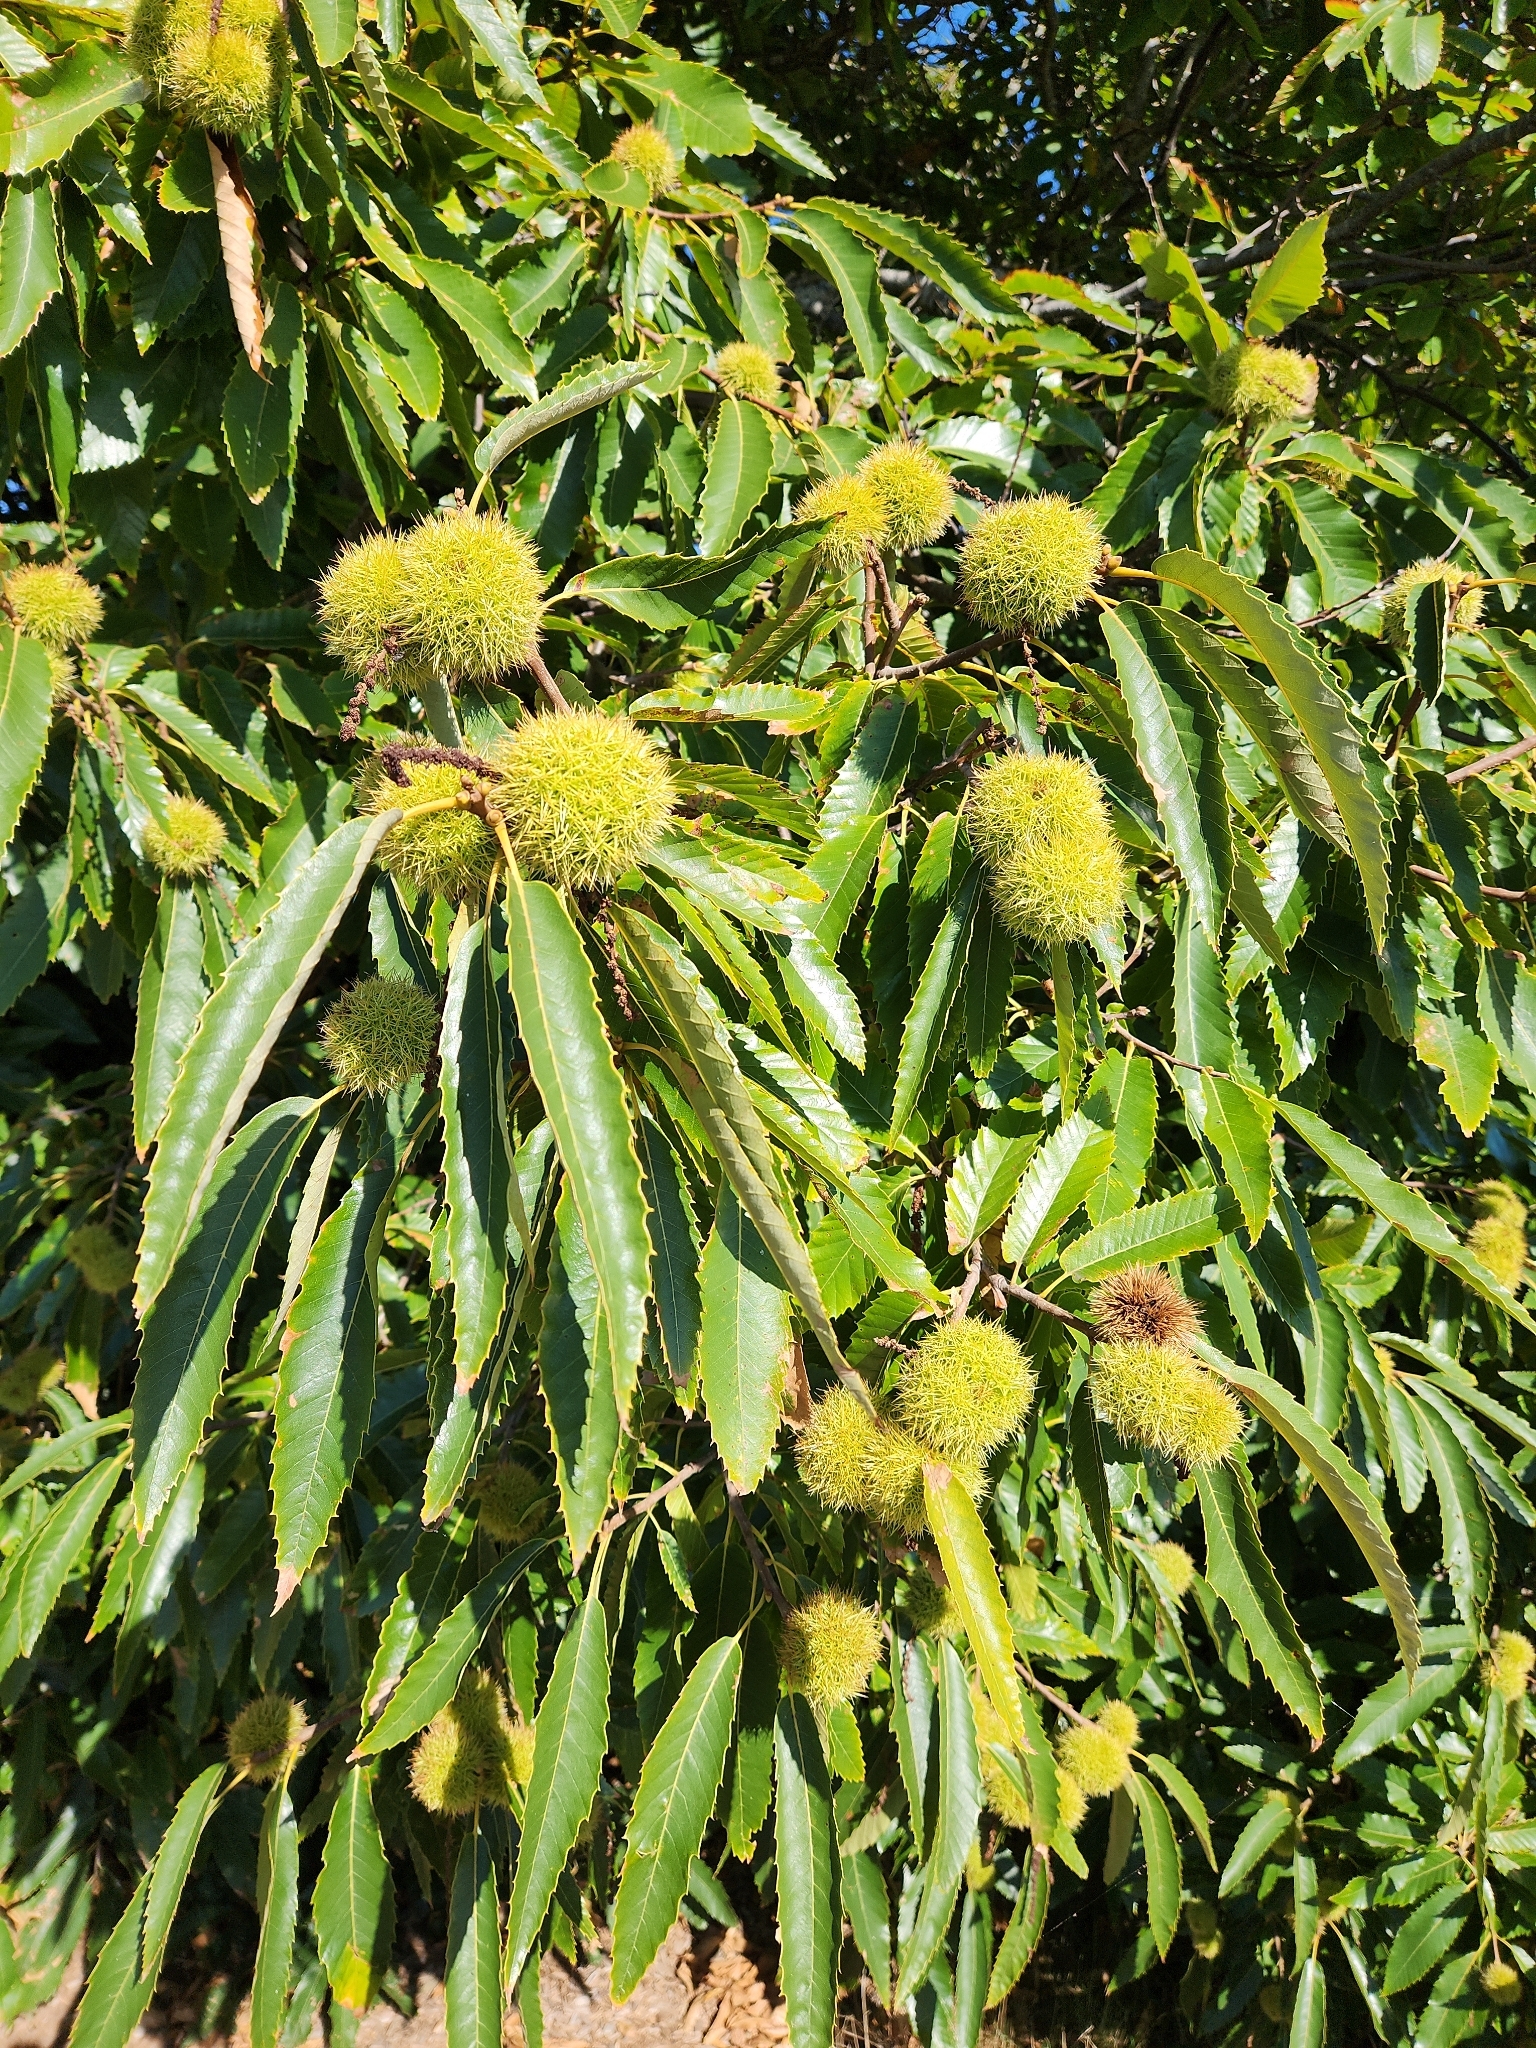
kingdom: Plantae
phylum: Tracheophyta
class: Magnoliopsida
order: Fagales
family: Fagaceae
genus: Castanea
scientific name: Castanea sativa
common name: Sweet chestnut
